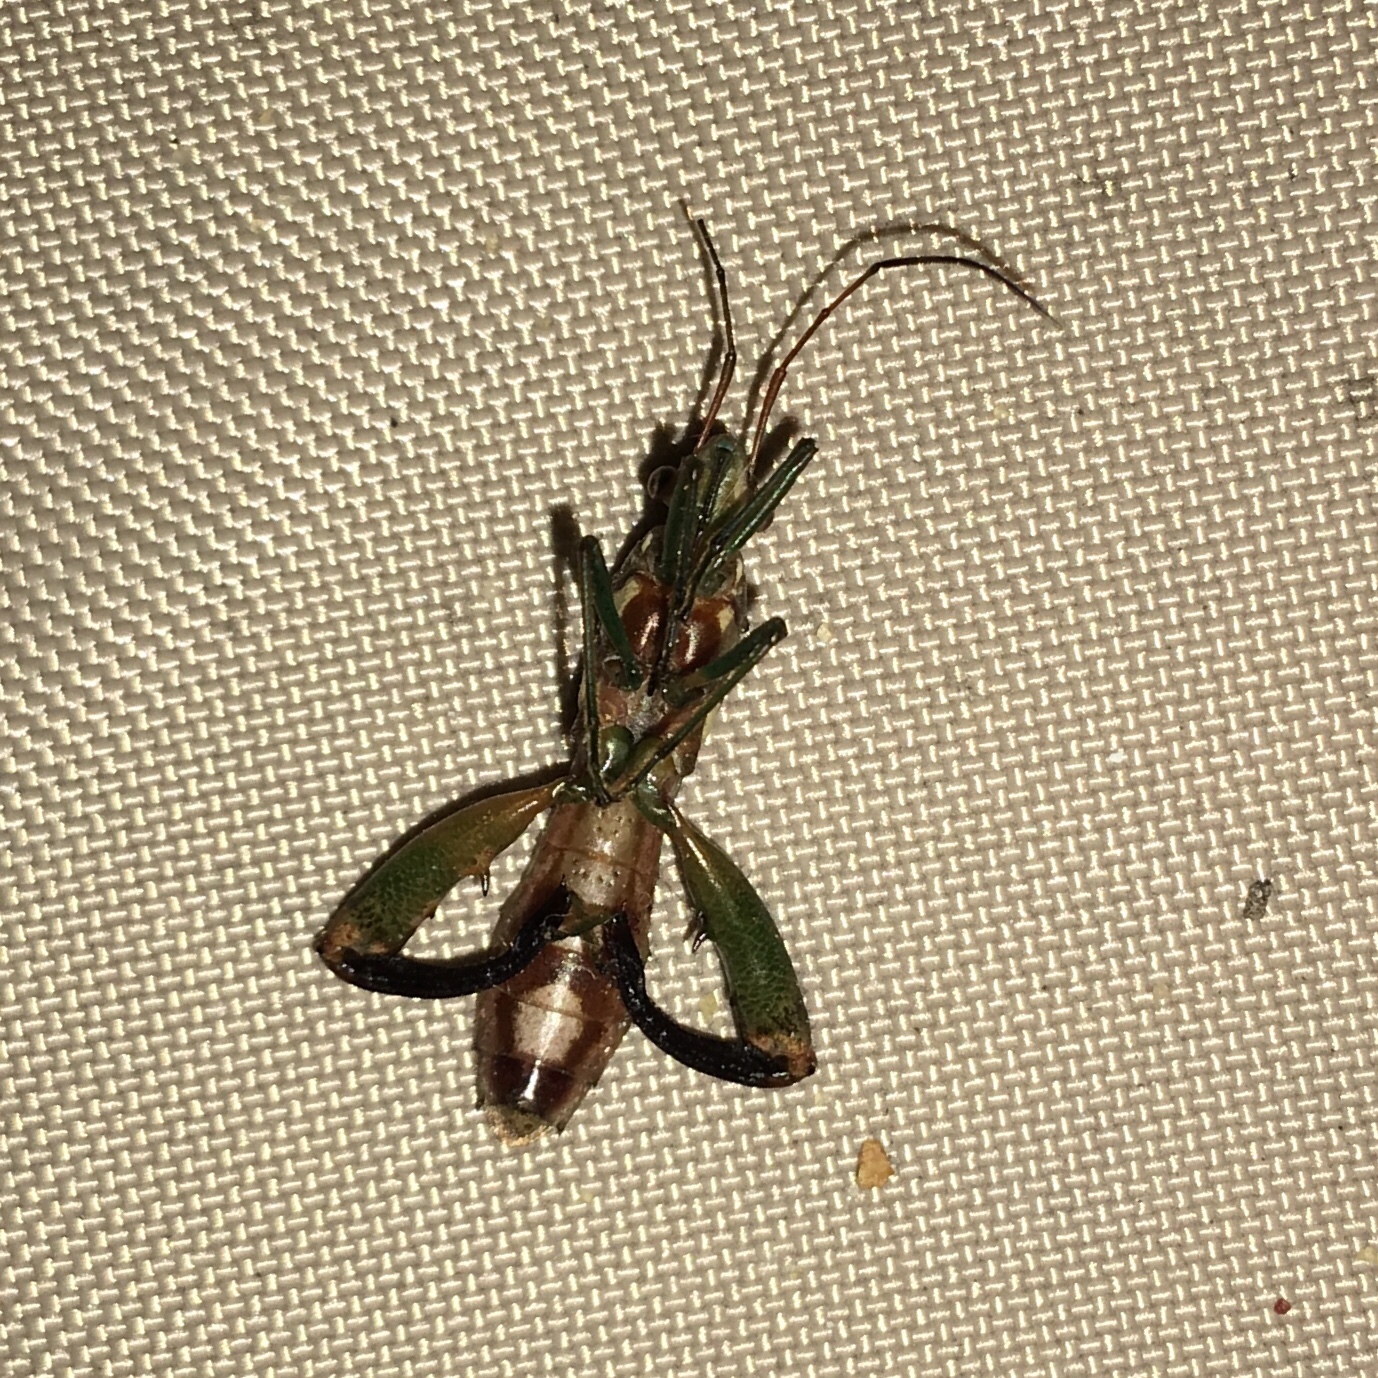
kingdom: Animalia
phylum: Arthropoda
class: Insecta
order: Hemiptera
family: Alydidae
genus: Hyalymenus
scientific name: Hyalymenus tarsatus
